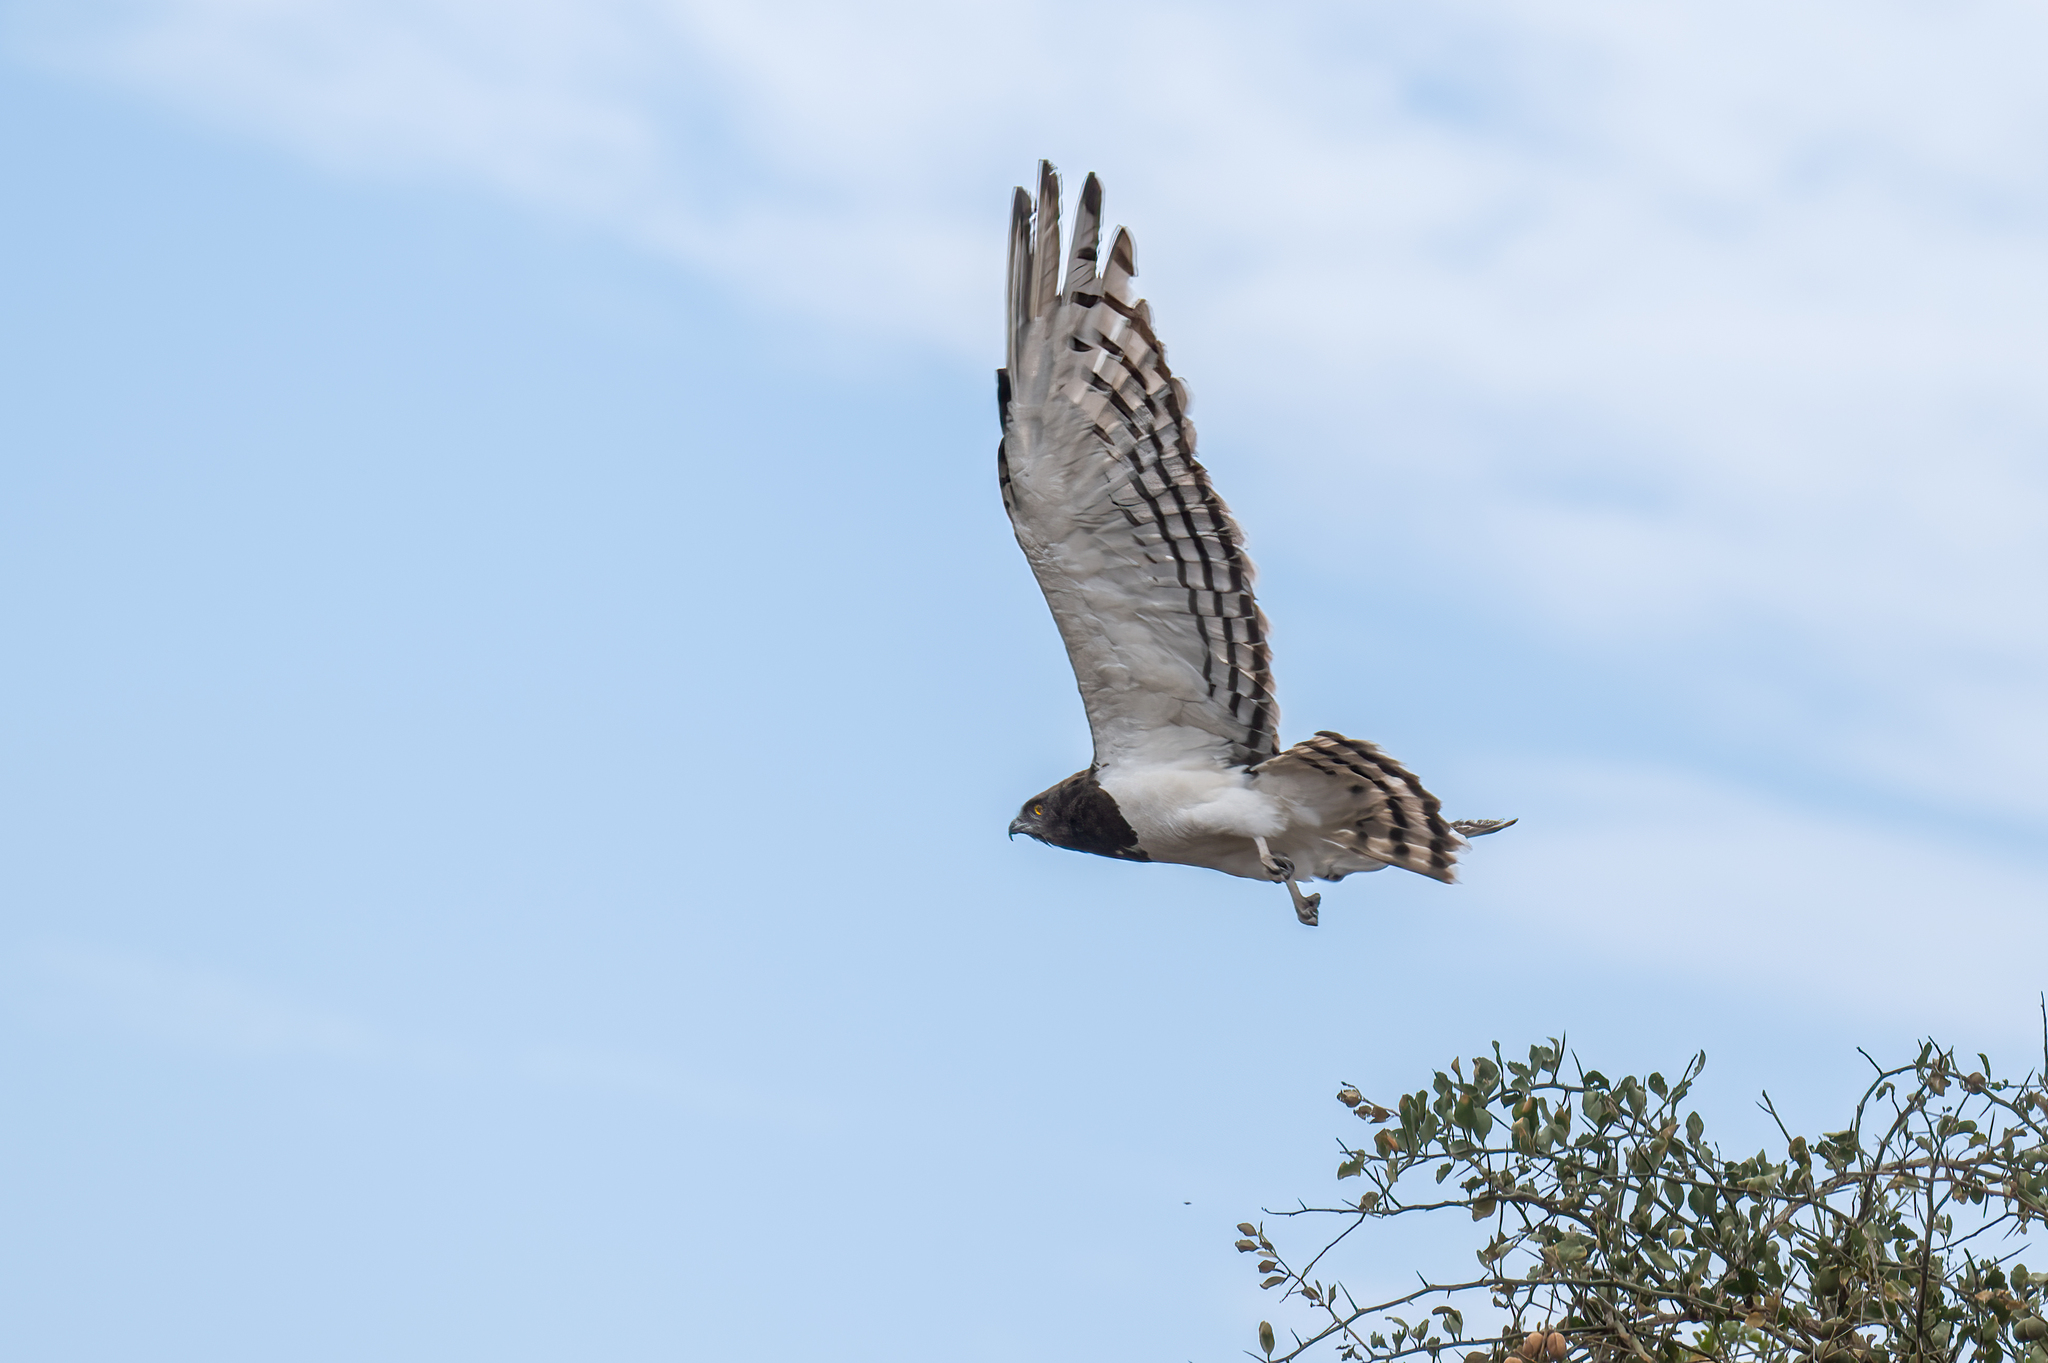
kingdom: Animalia
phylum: Chordata
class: Aves
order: Accipitriformes
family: Accipitridae
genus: Circaetus
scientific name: Circaetus pectoralis
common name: Black-chested snake eagle
